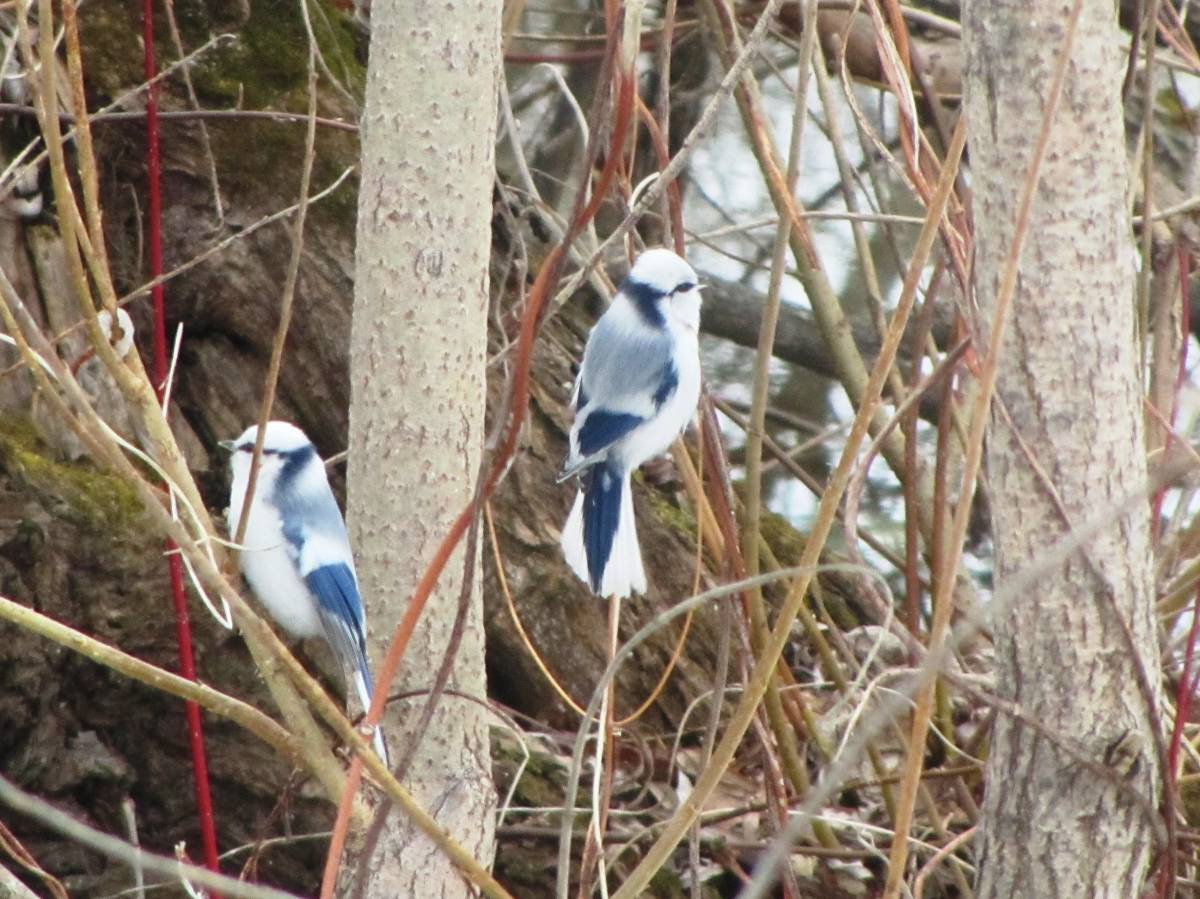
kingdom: Animalia
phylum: Chordata
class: Aves
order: Passeriformes
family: Paridae
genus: Cyanistes
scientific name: Cyanistes cyanus
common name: Azure tit
